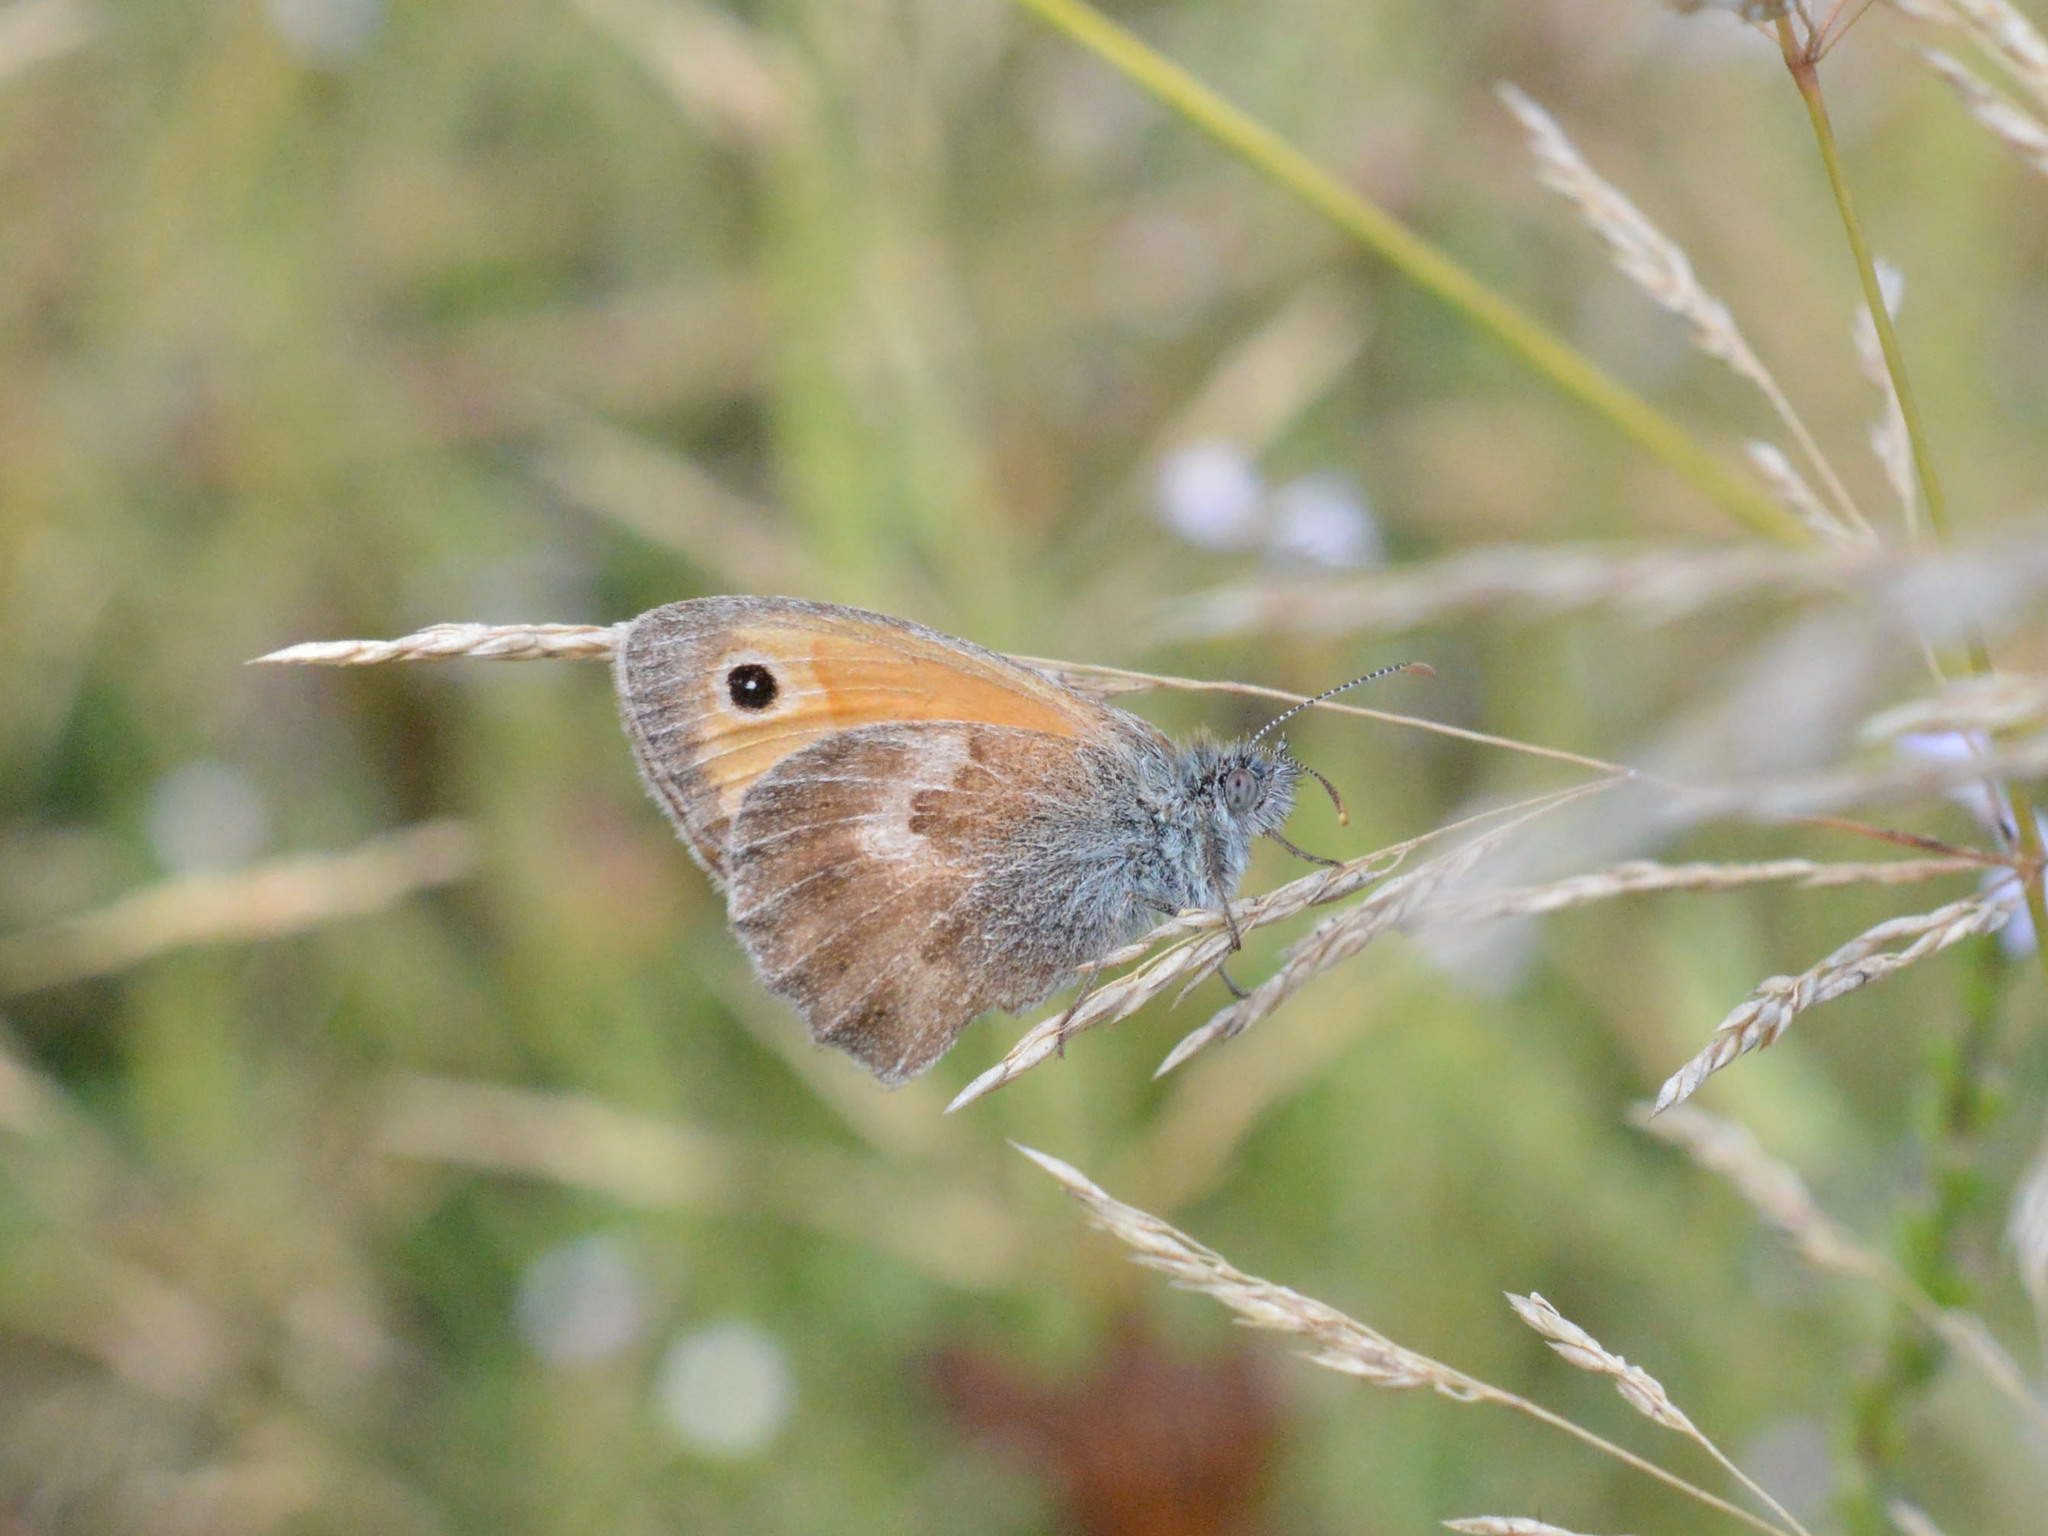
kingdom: Animalia
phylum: Arthropoda
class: Insecta
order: Lepidoptera
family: Nymphalidae
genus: Coenonympha
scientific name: Coenonympha pamphilus
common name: Small heath
